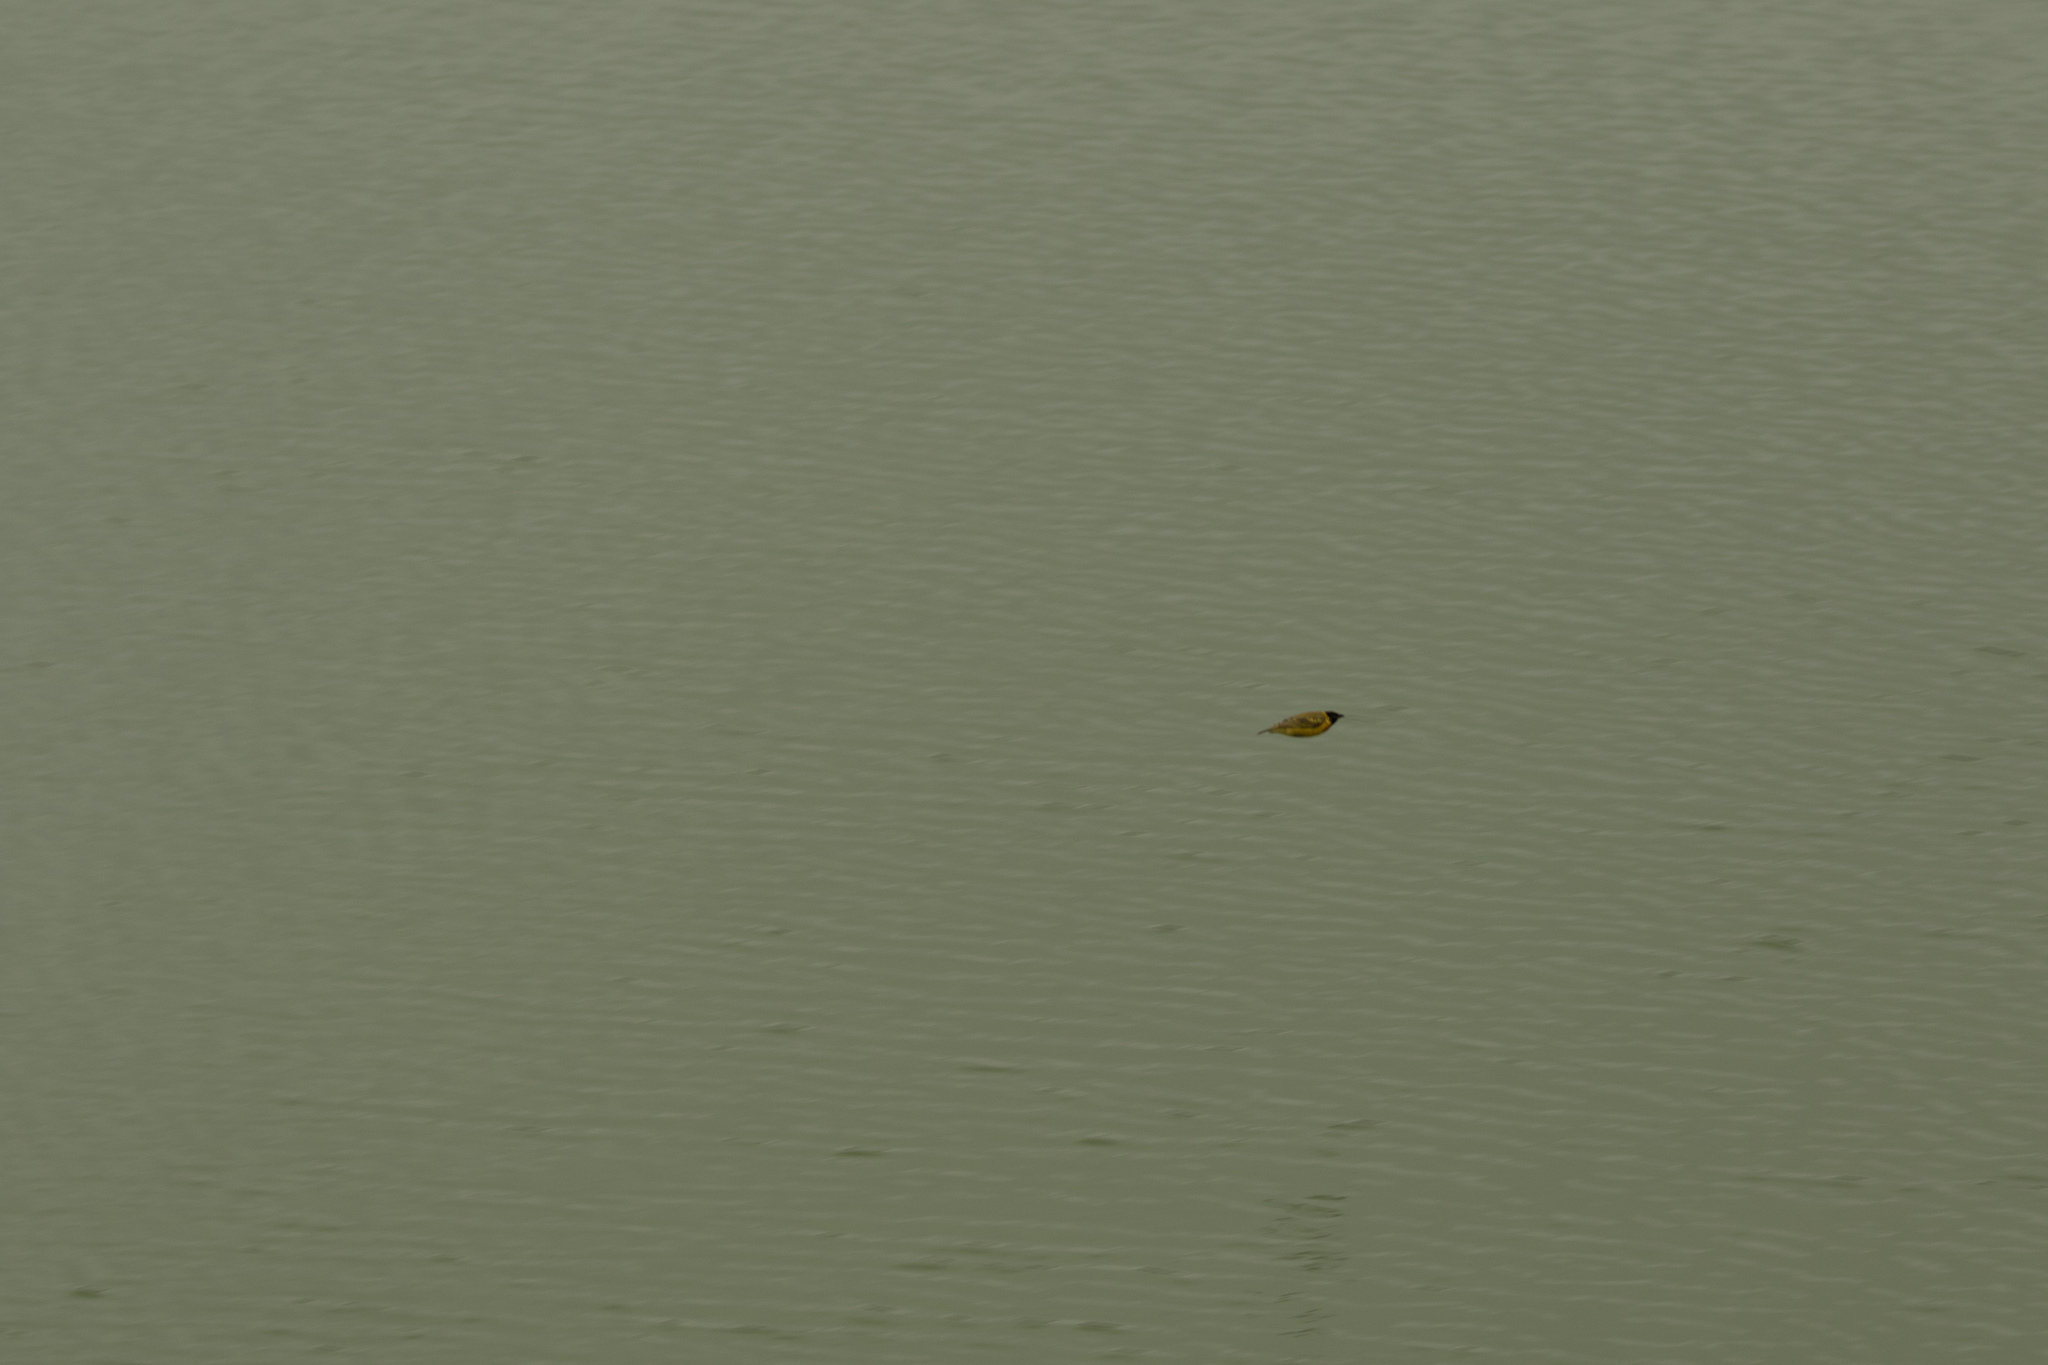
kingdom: Animalia
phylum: Chordata
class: Aves
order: Passeriformes
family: Ploceidae
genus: Ploceus
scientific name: Ploceus melanocephalus
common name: Black-headed weaver
